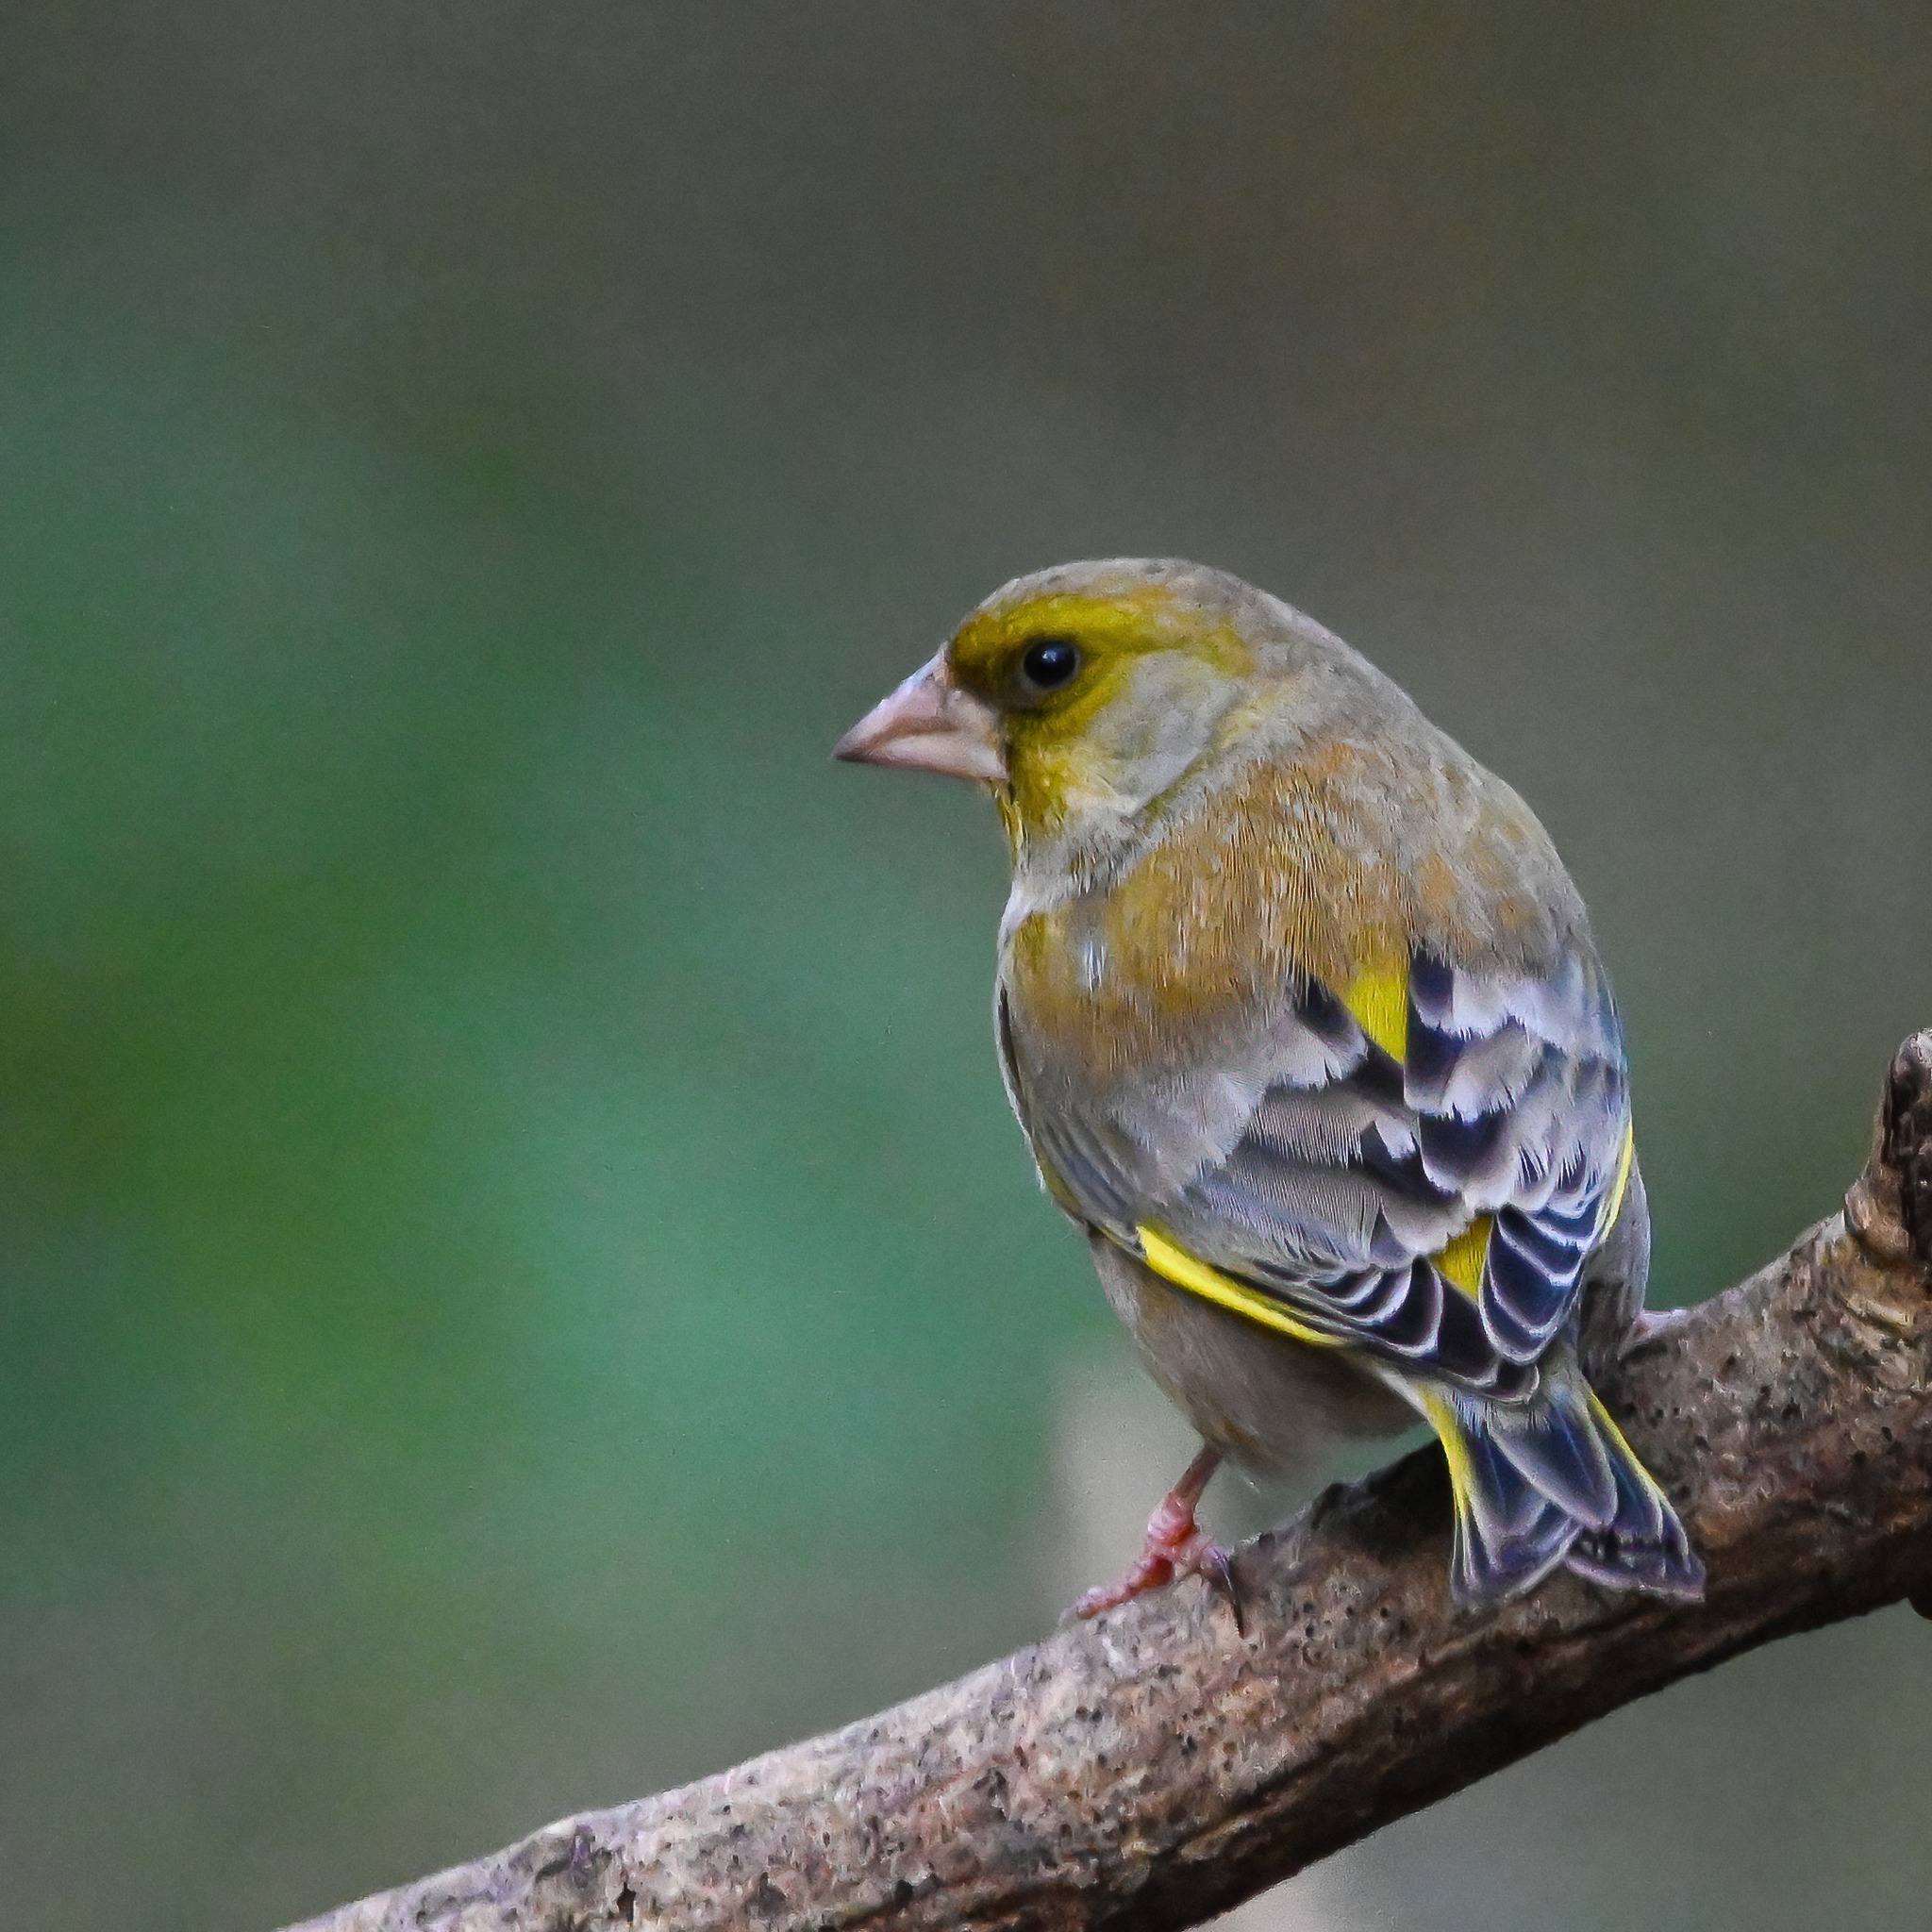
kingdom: Plantae
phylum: Tracheophyta
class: Liliopsida
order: Poales
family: Poaceae
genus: Chloris
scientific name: Chloris chloris
